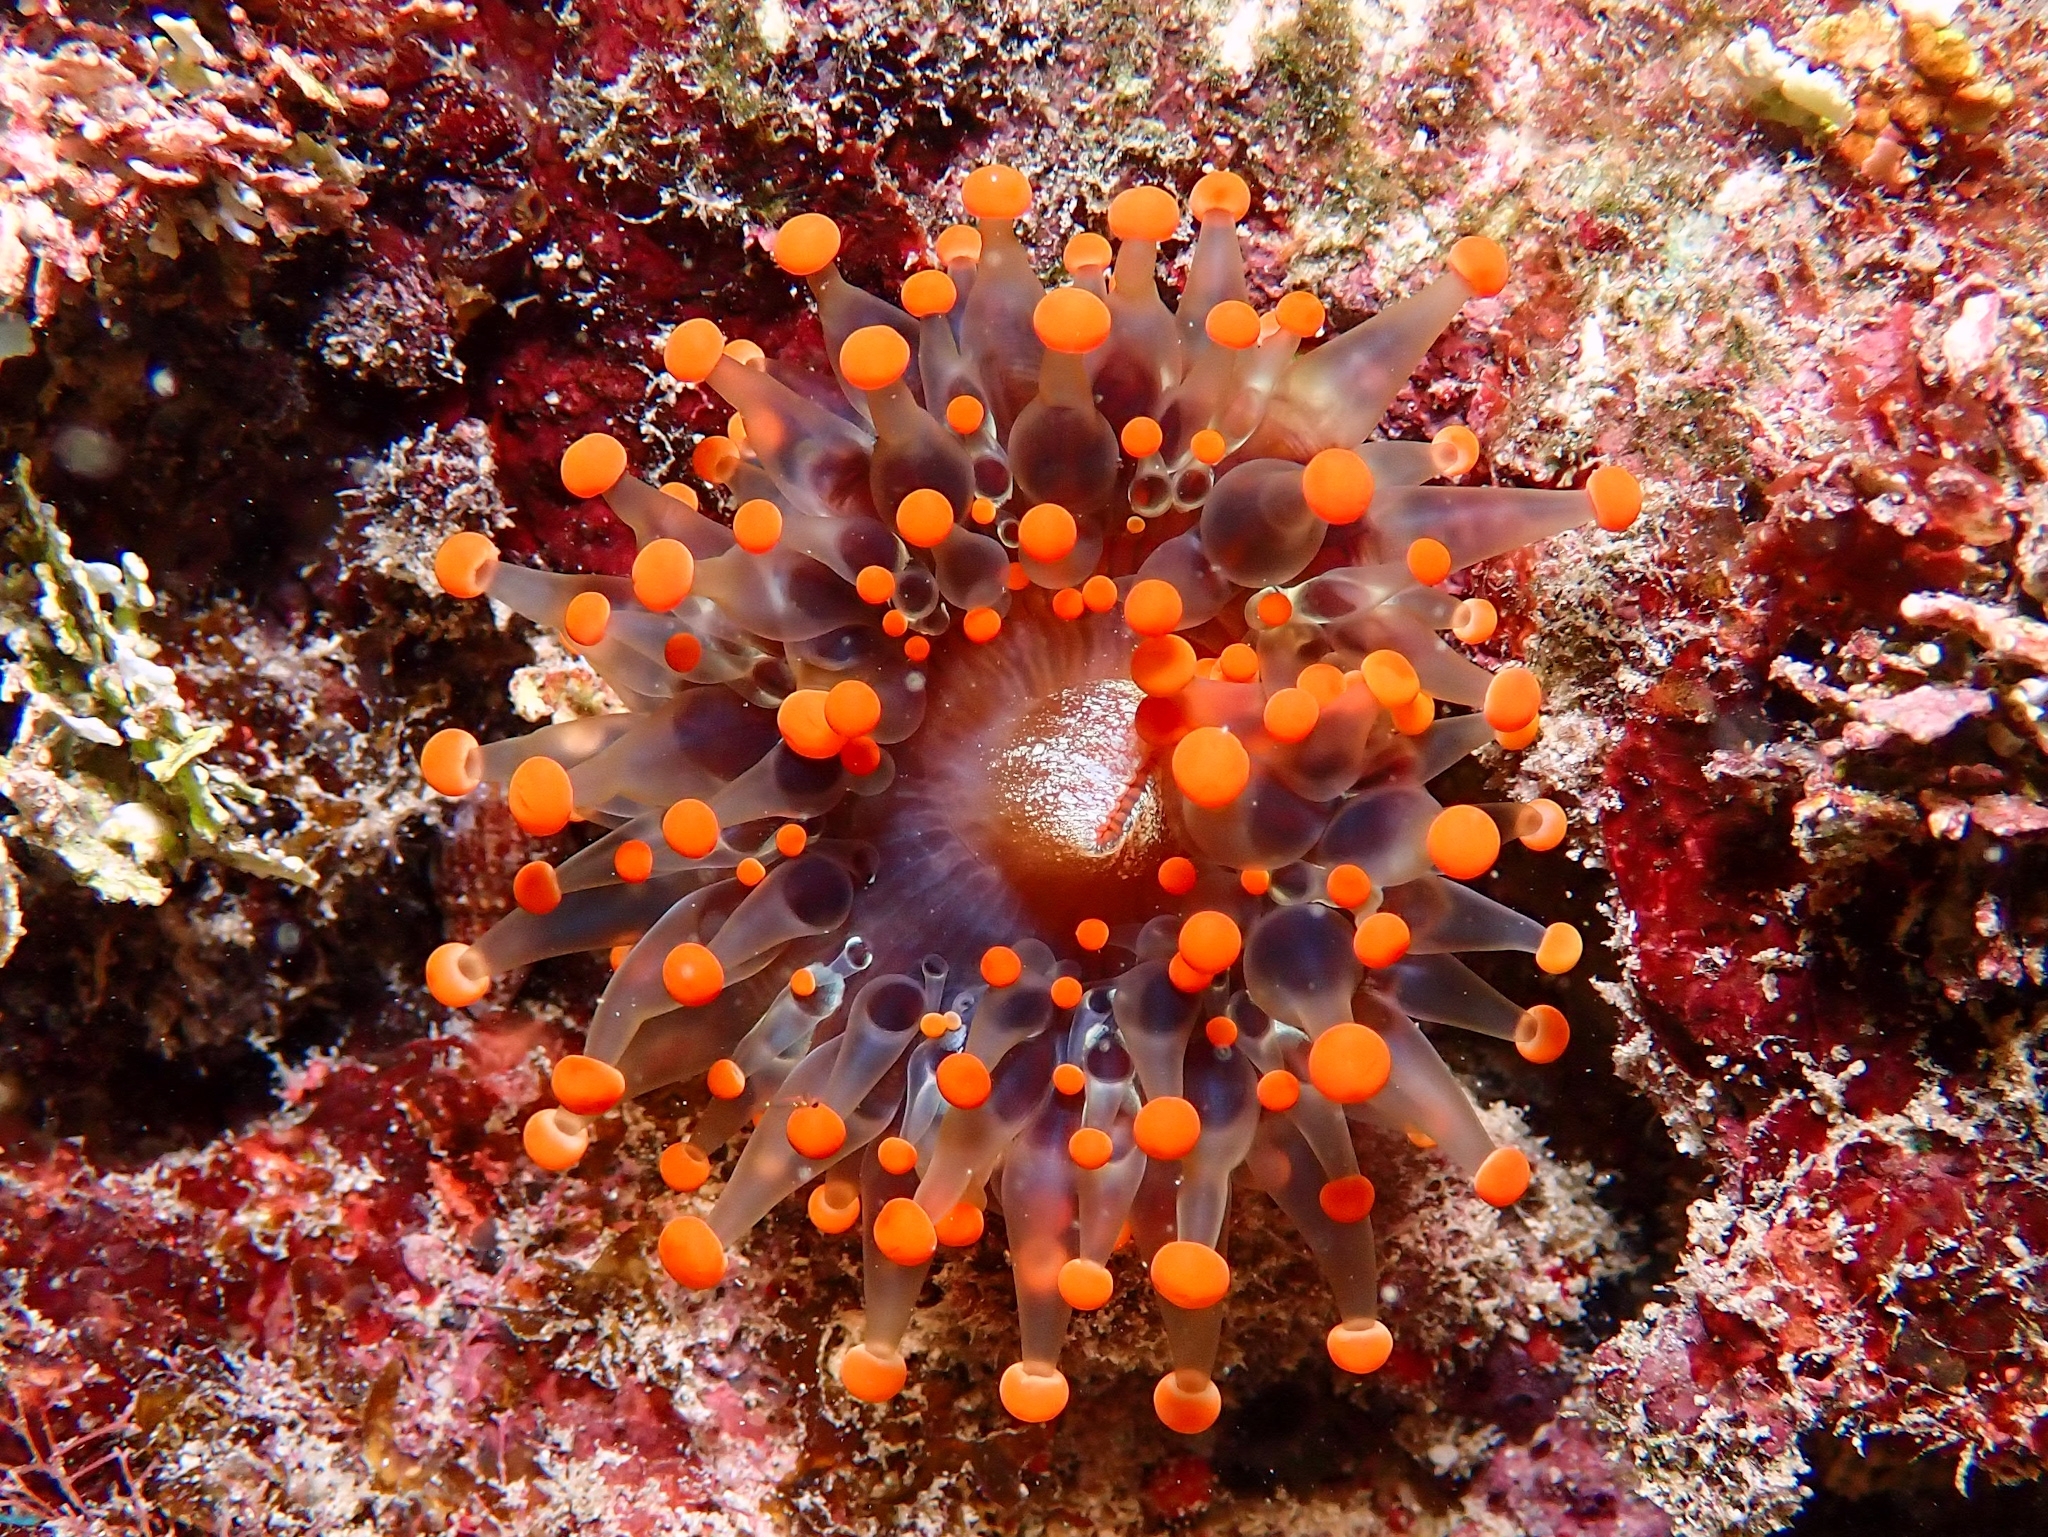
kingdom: Animalia
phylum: Cnidaria
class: Anthozoa
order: Corallimorpharia
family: Corallimorphidae
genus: Pseudocorynactis
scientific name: Pseudocorynactis caribbeorum
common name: Orange ball anemone
